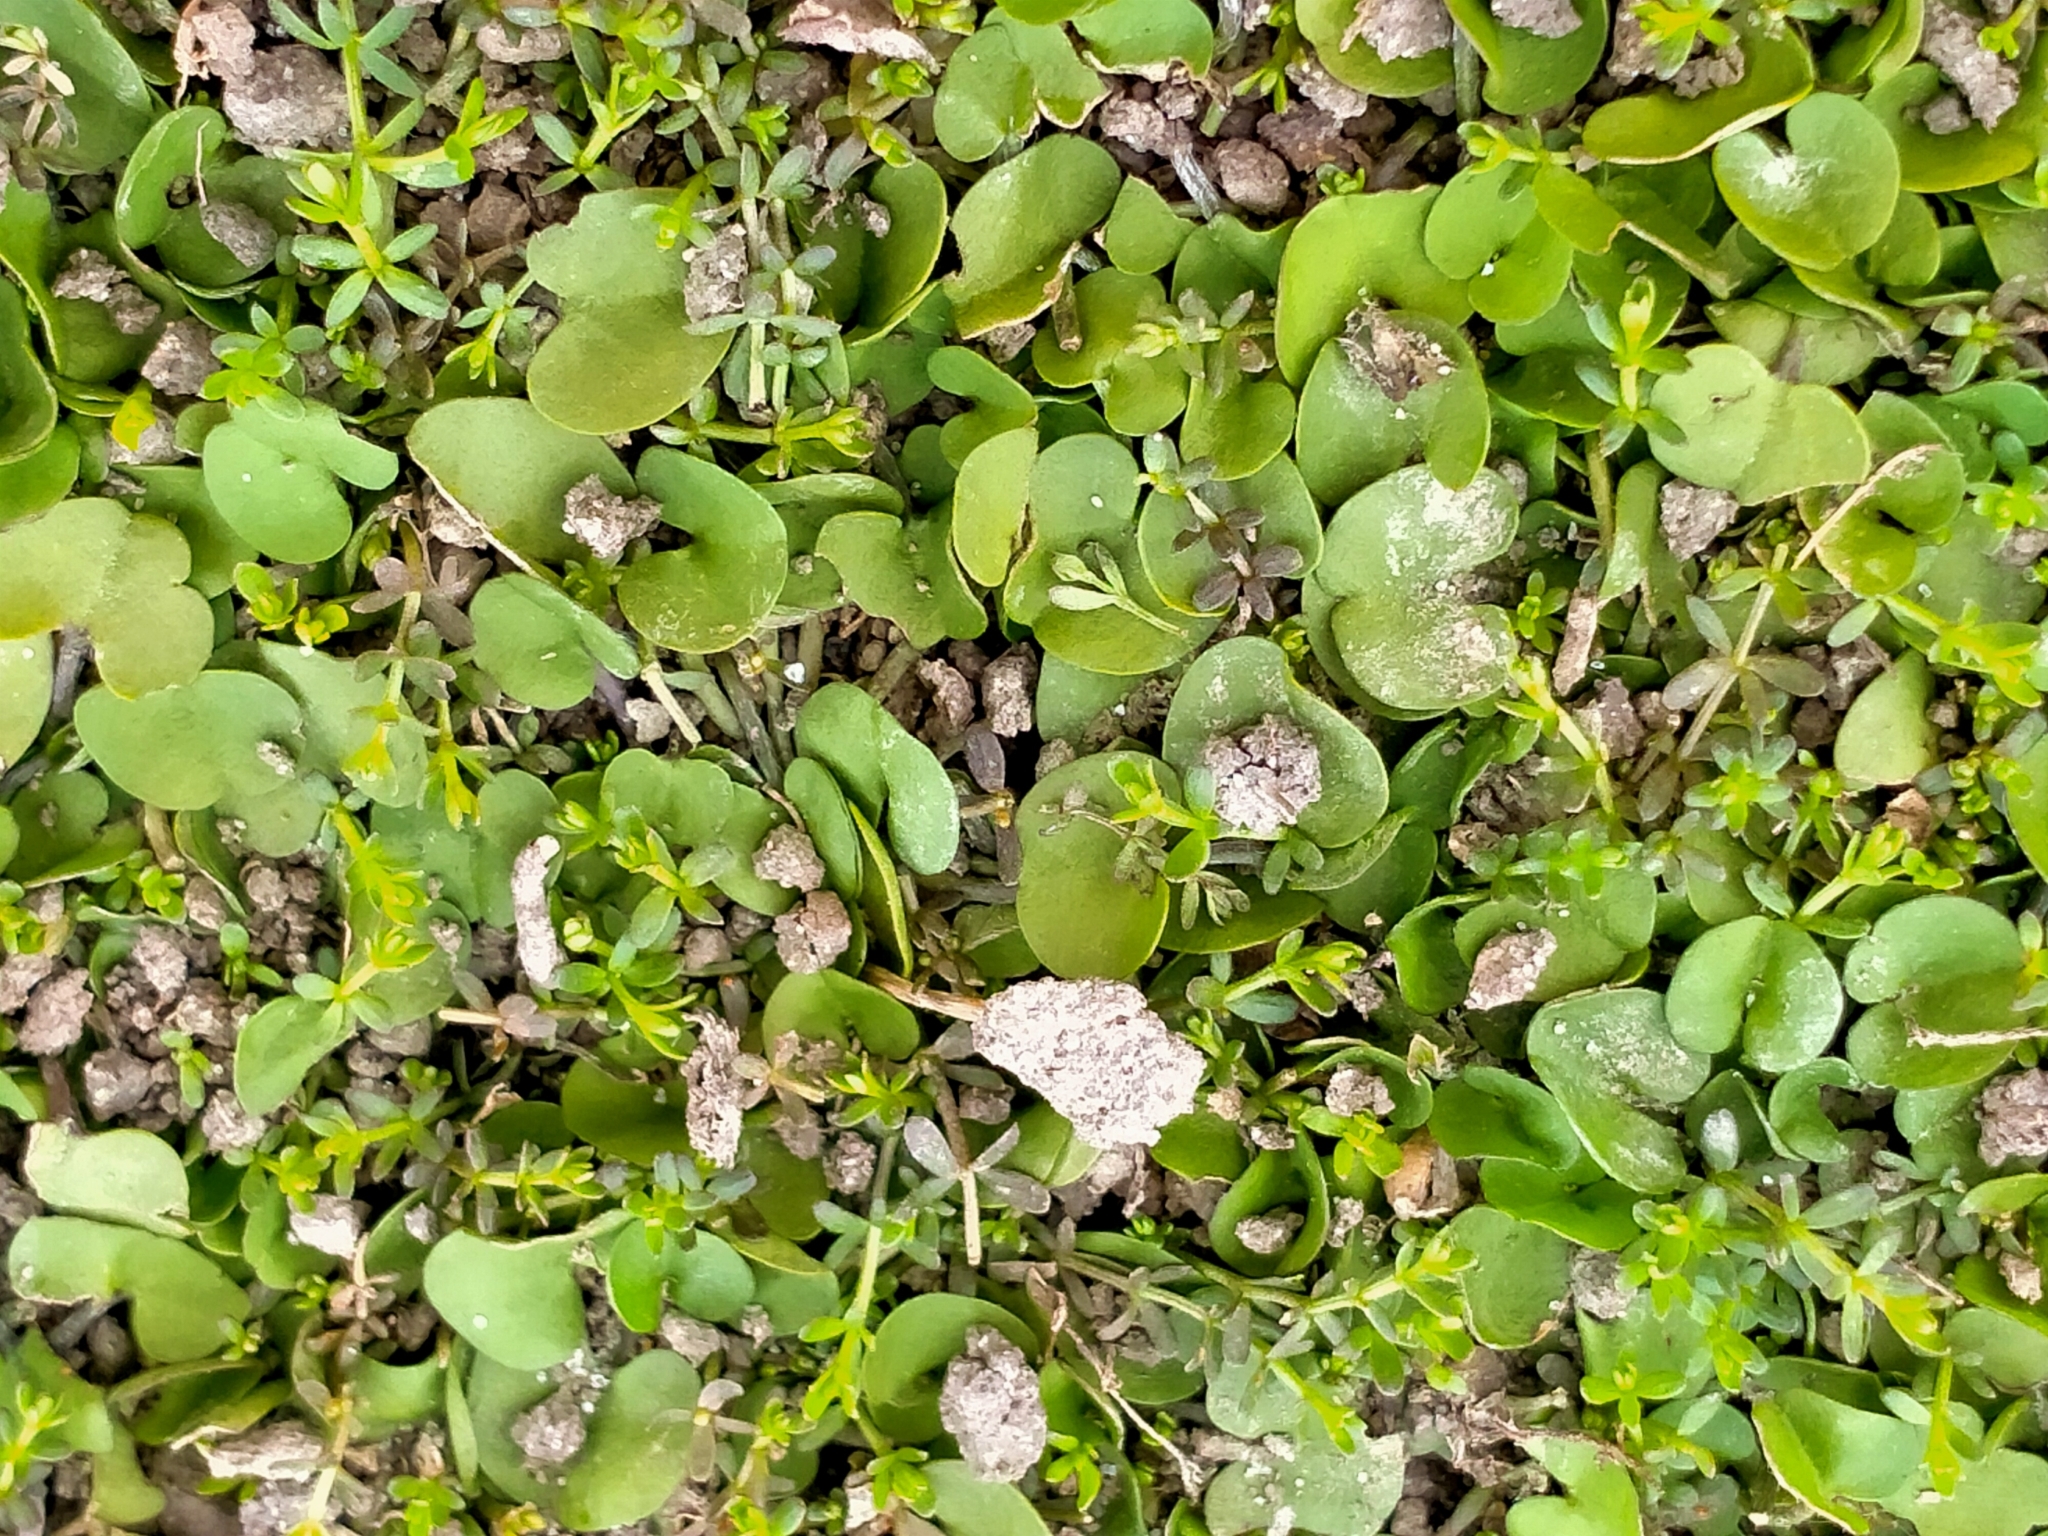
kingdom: Plantae
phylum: Tracheophyta
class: Magnoliopsida
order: Solanales
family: Convolvulaceae
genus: Dichondra
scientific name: Dichondra brevifolia
